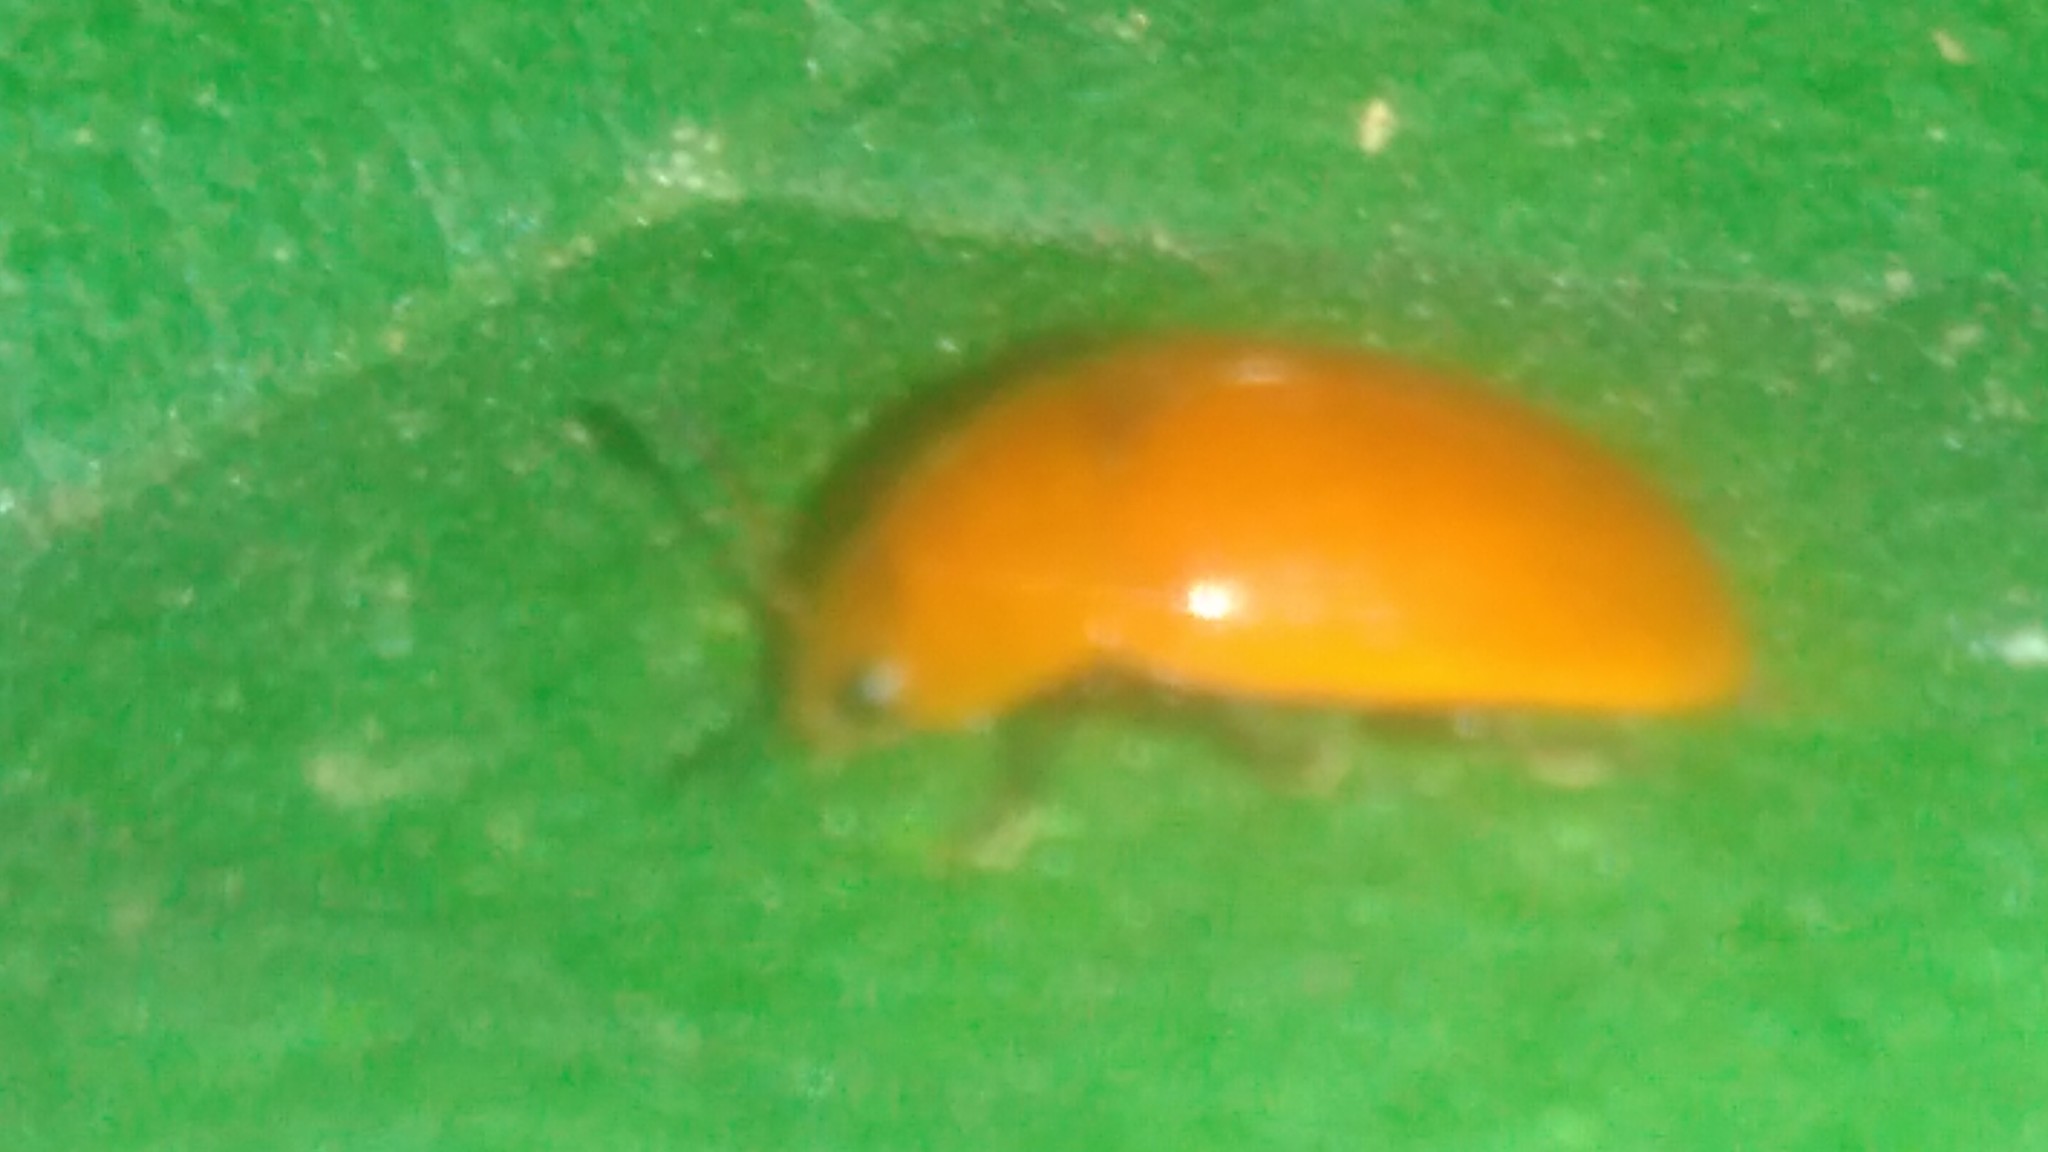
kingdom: Animalia
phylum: Arthropoda
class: Insecta
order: Coleoptera
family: Erotylidae
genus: Mycomystes
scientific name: Mycomystes nigriventris
